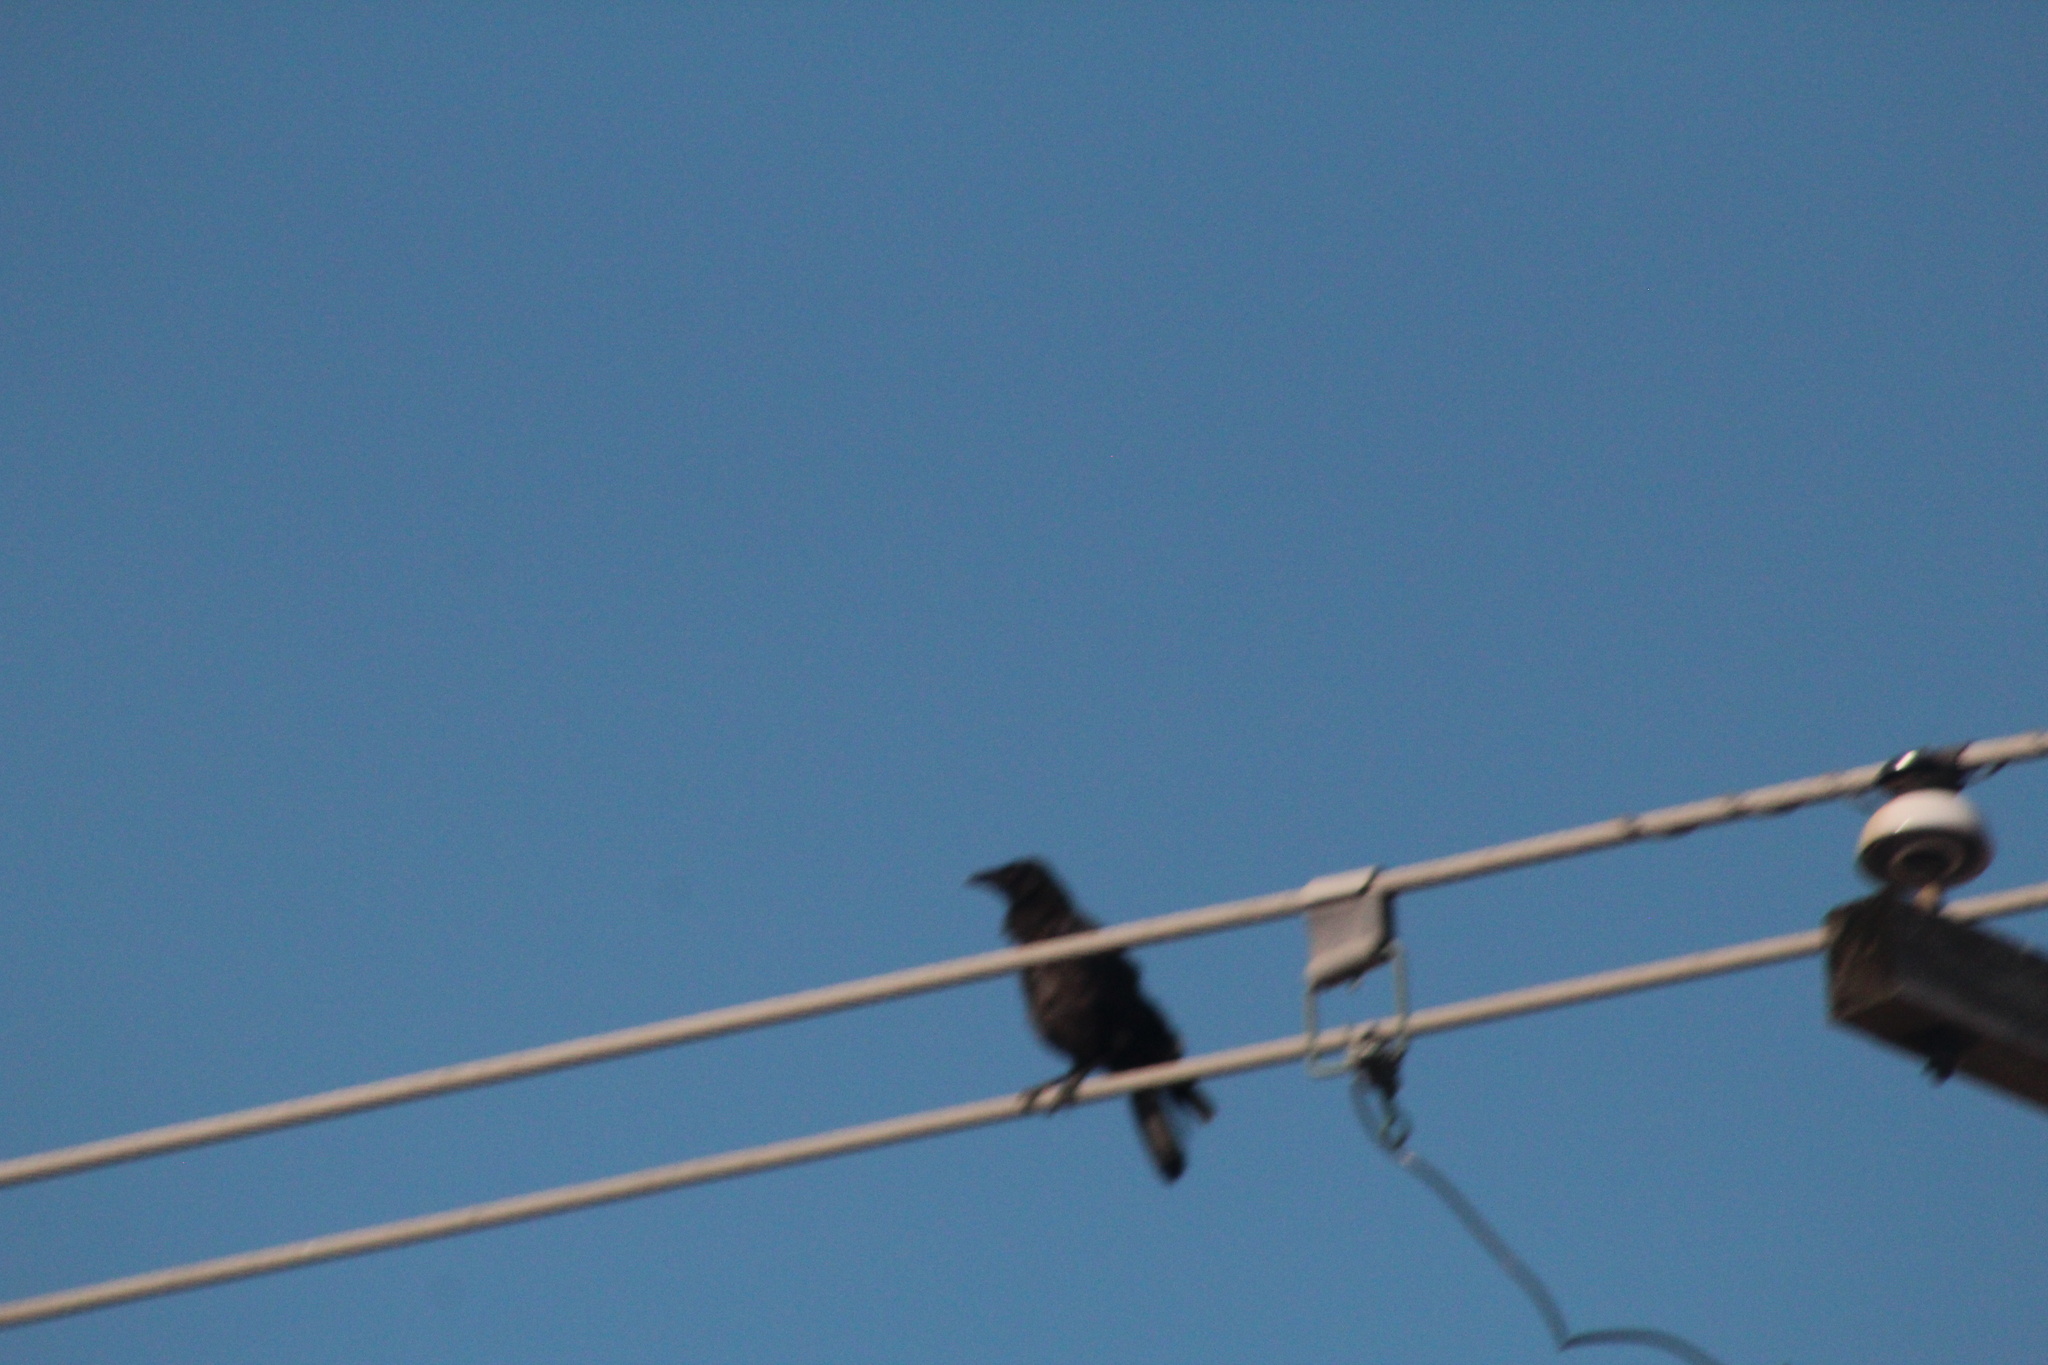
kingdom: Animalia
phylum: Chordata
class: Aves
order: Passeriformes
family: Corvidae
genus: Corvus
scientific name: Corvus brachyrhynchos
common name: American crow
